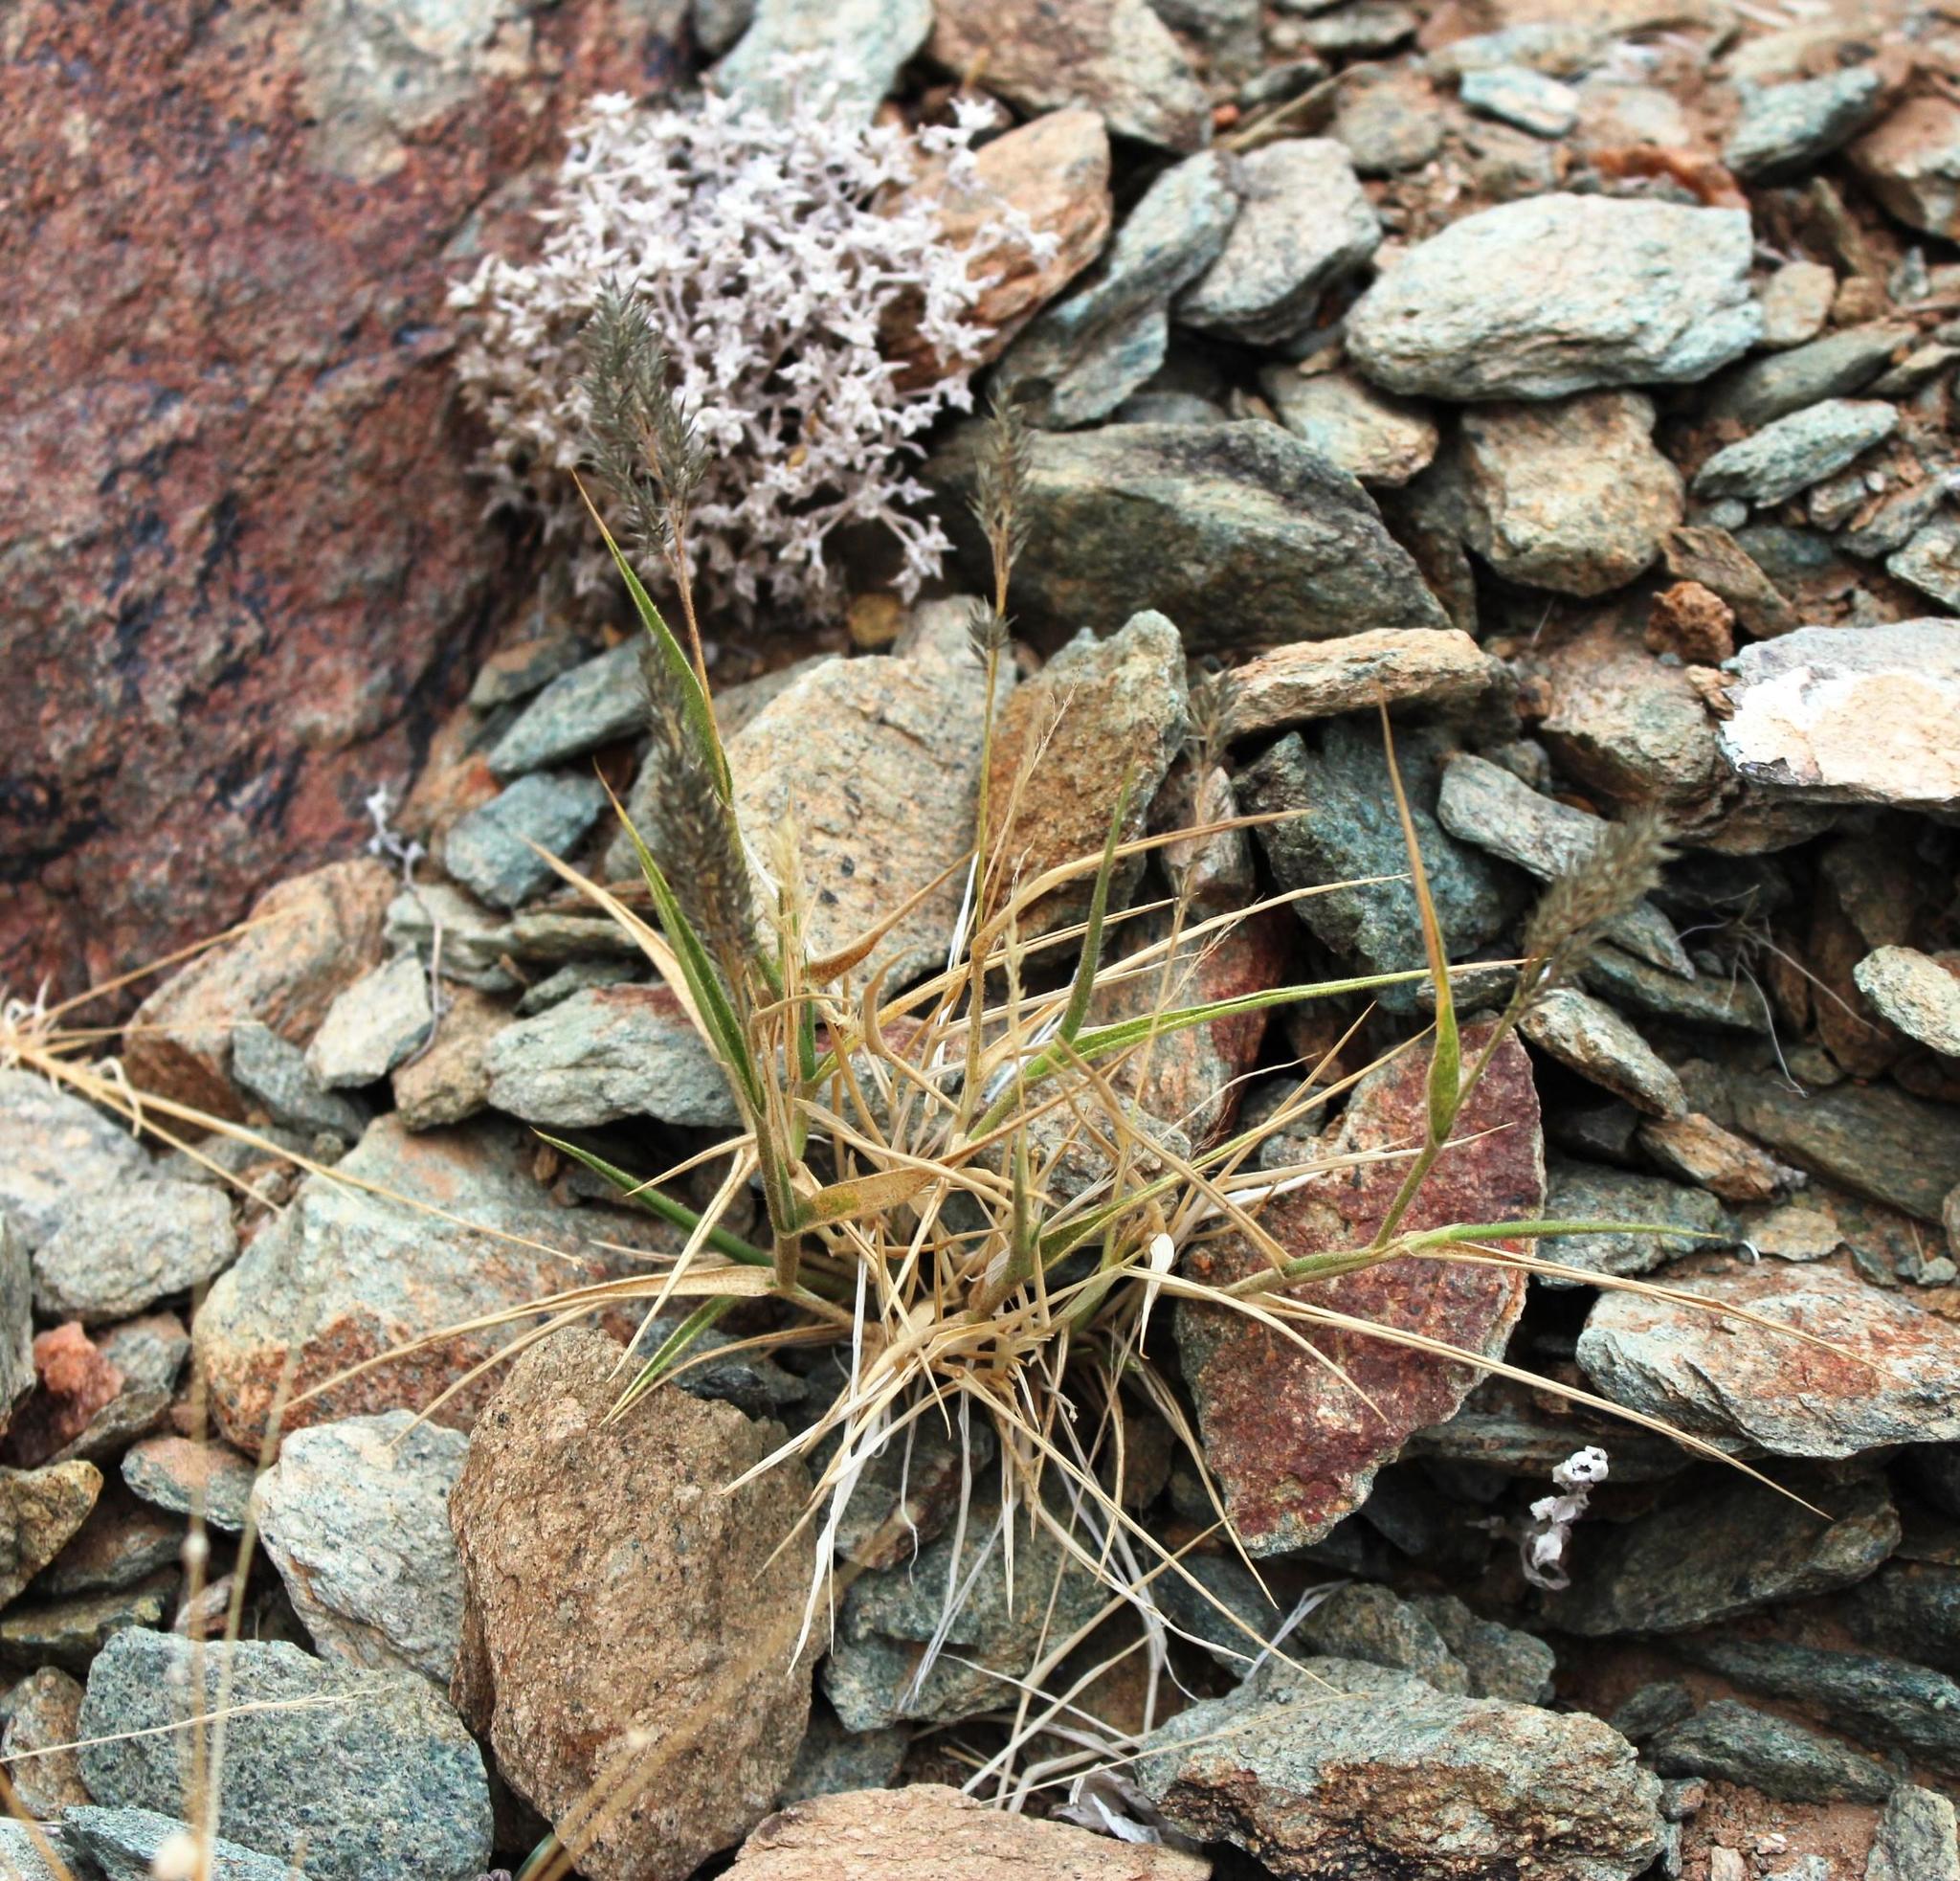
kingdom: Plantae
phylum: Tracheophyta
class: Liliopsida
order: Poales
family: Poaceae
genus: Enneapogon
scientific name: Enneapogon desvauxii
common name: Feather pappus grass
